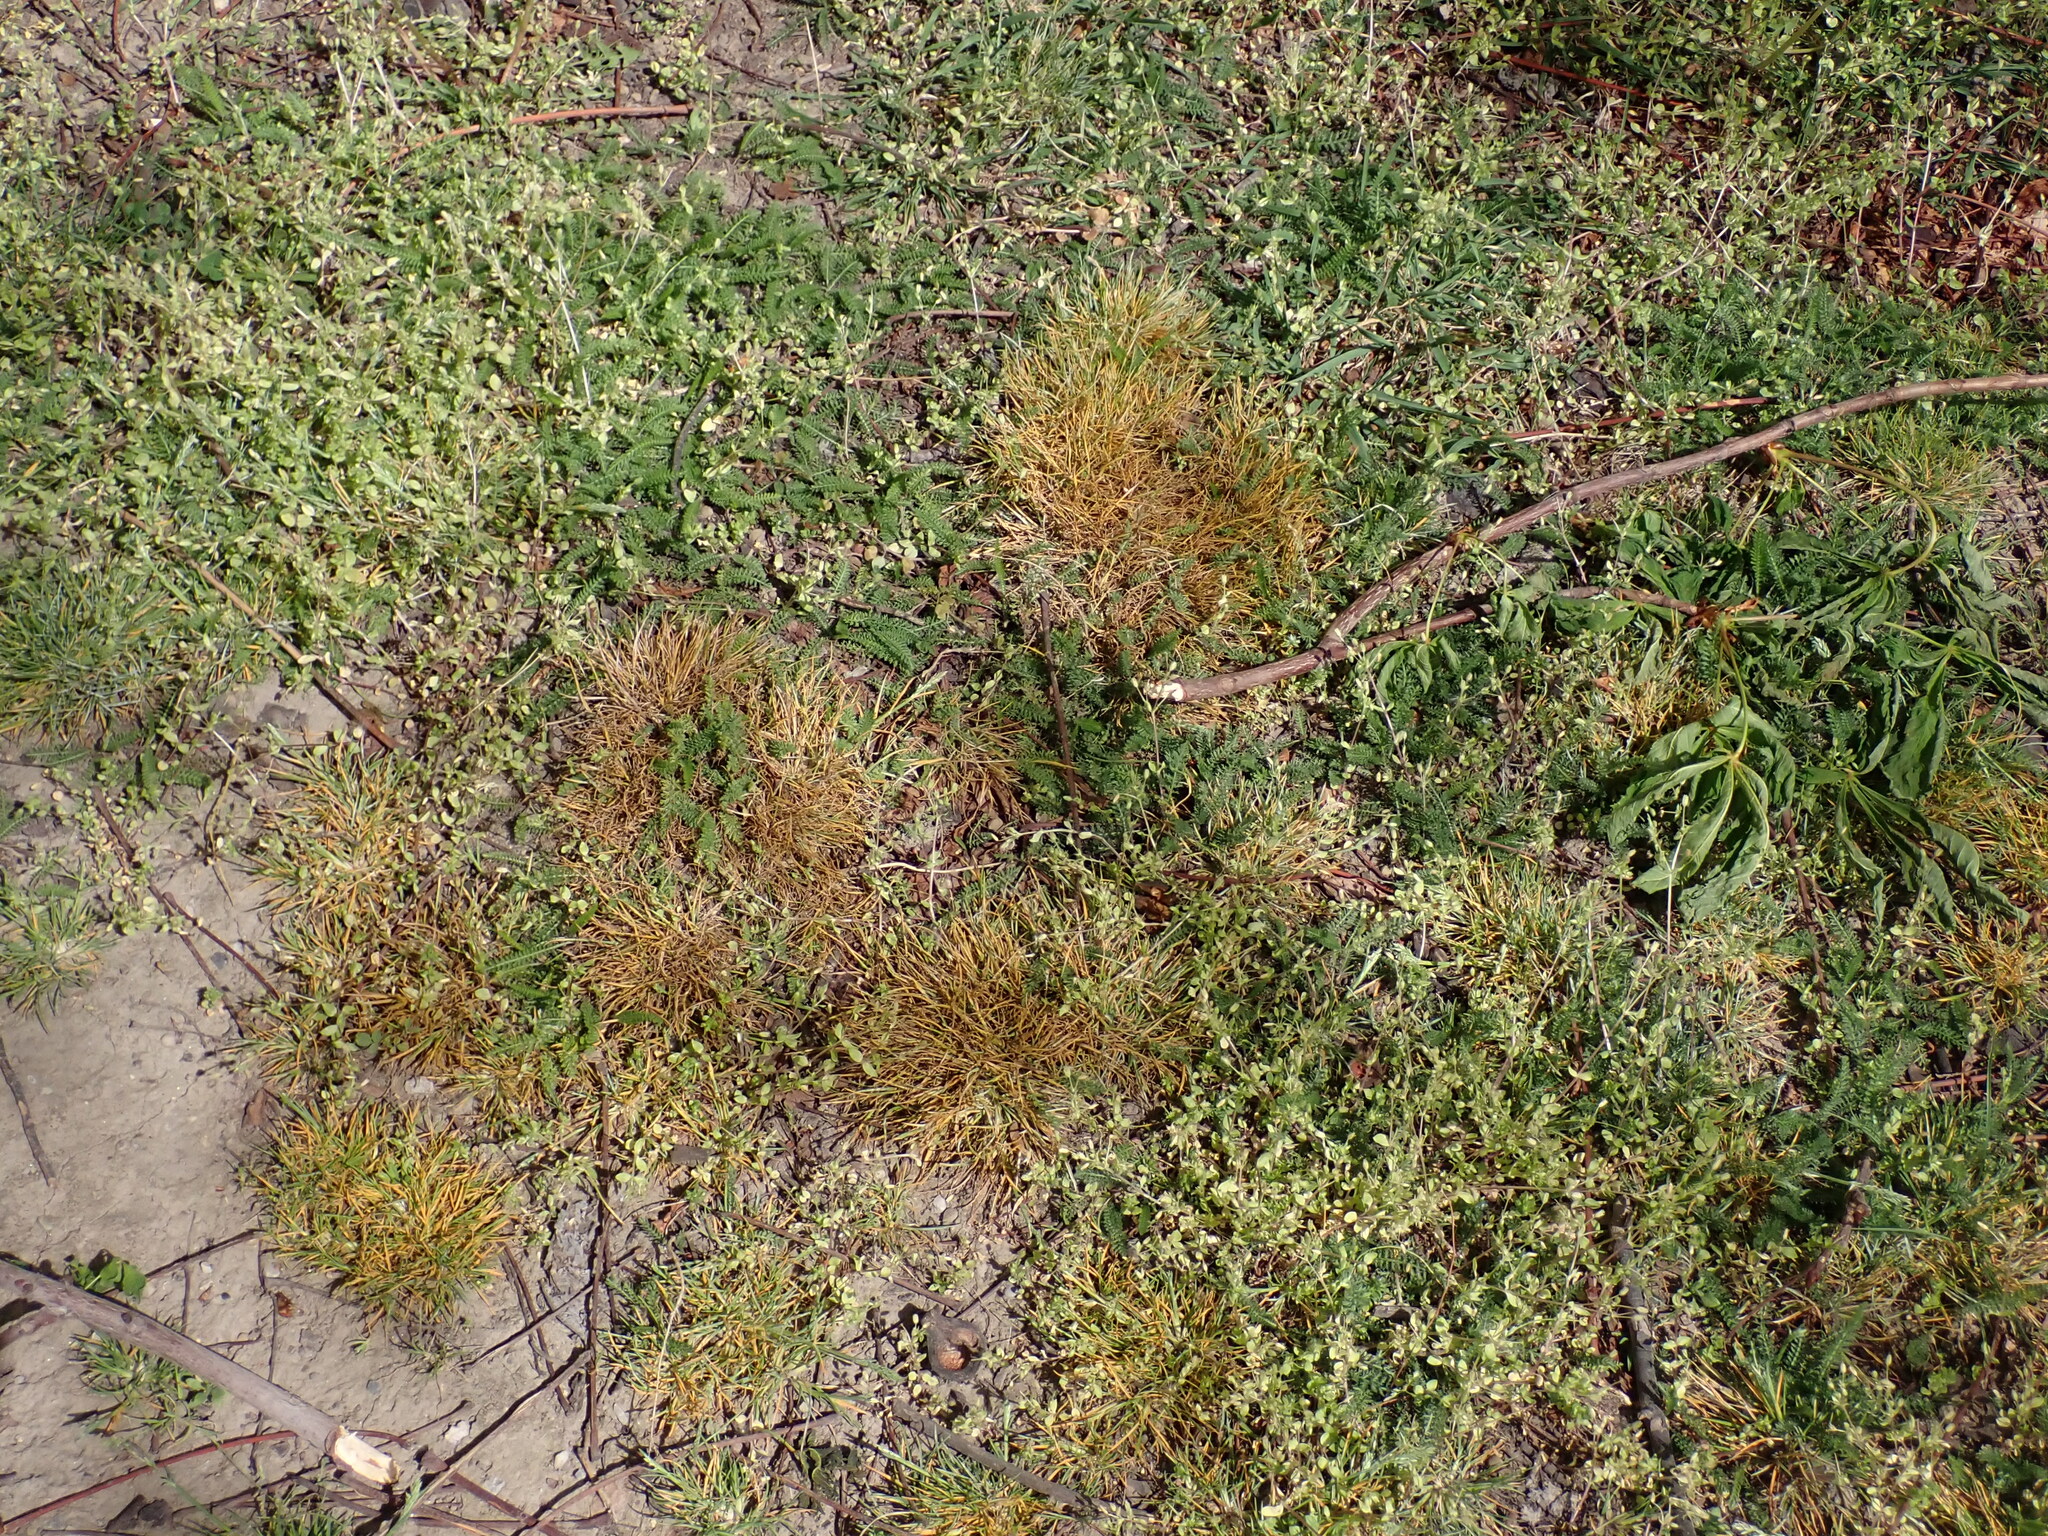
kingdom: Plantae
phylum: Tracheophyta
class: Liliopsida
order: Poales
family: Poaceae
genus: Poa
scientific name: Poa annua
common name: Annual bluegrass
